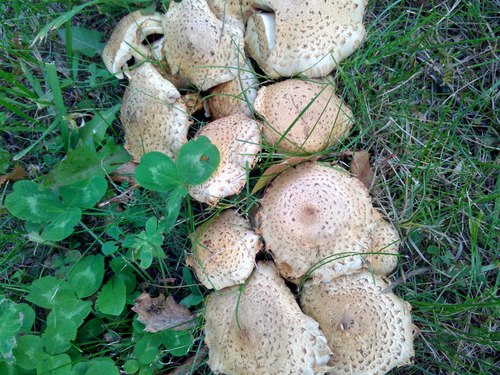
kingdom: Fungi
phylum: Basidiomycota
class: Agaricomycetes
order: Agaricales
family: Strophariaceae
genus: Pholiota
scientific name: Pholiota kodiakensis
